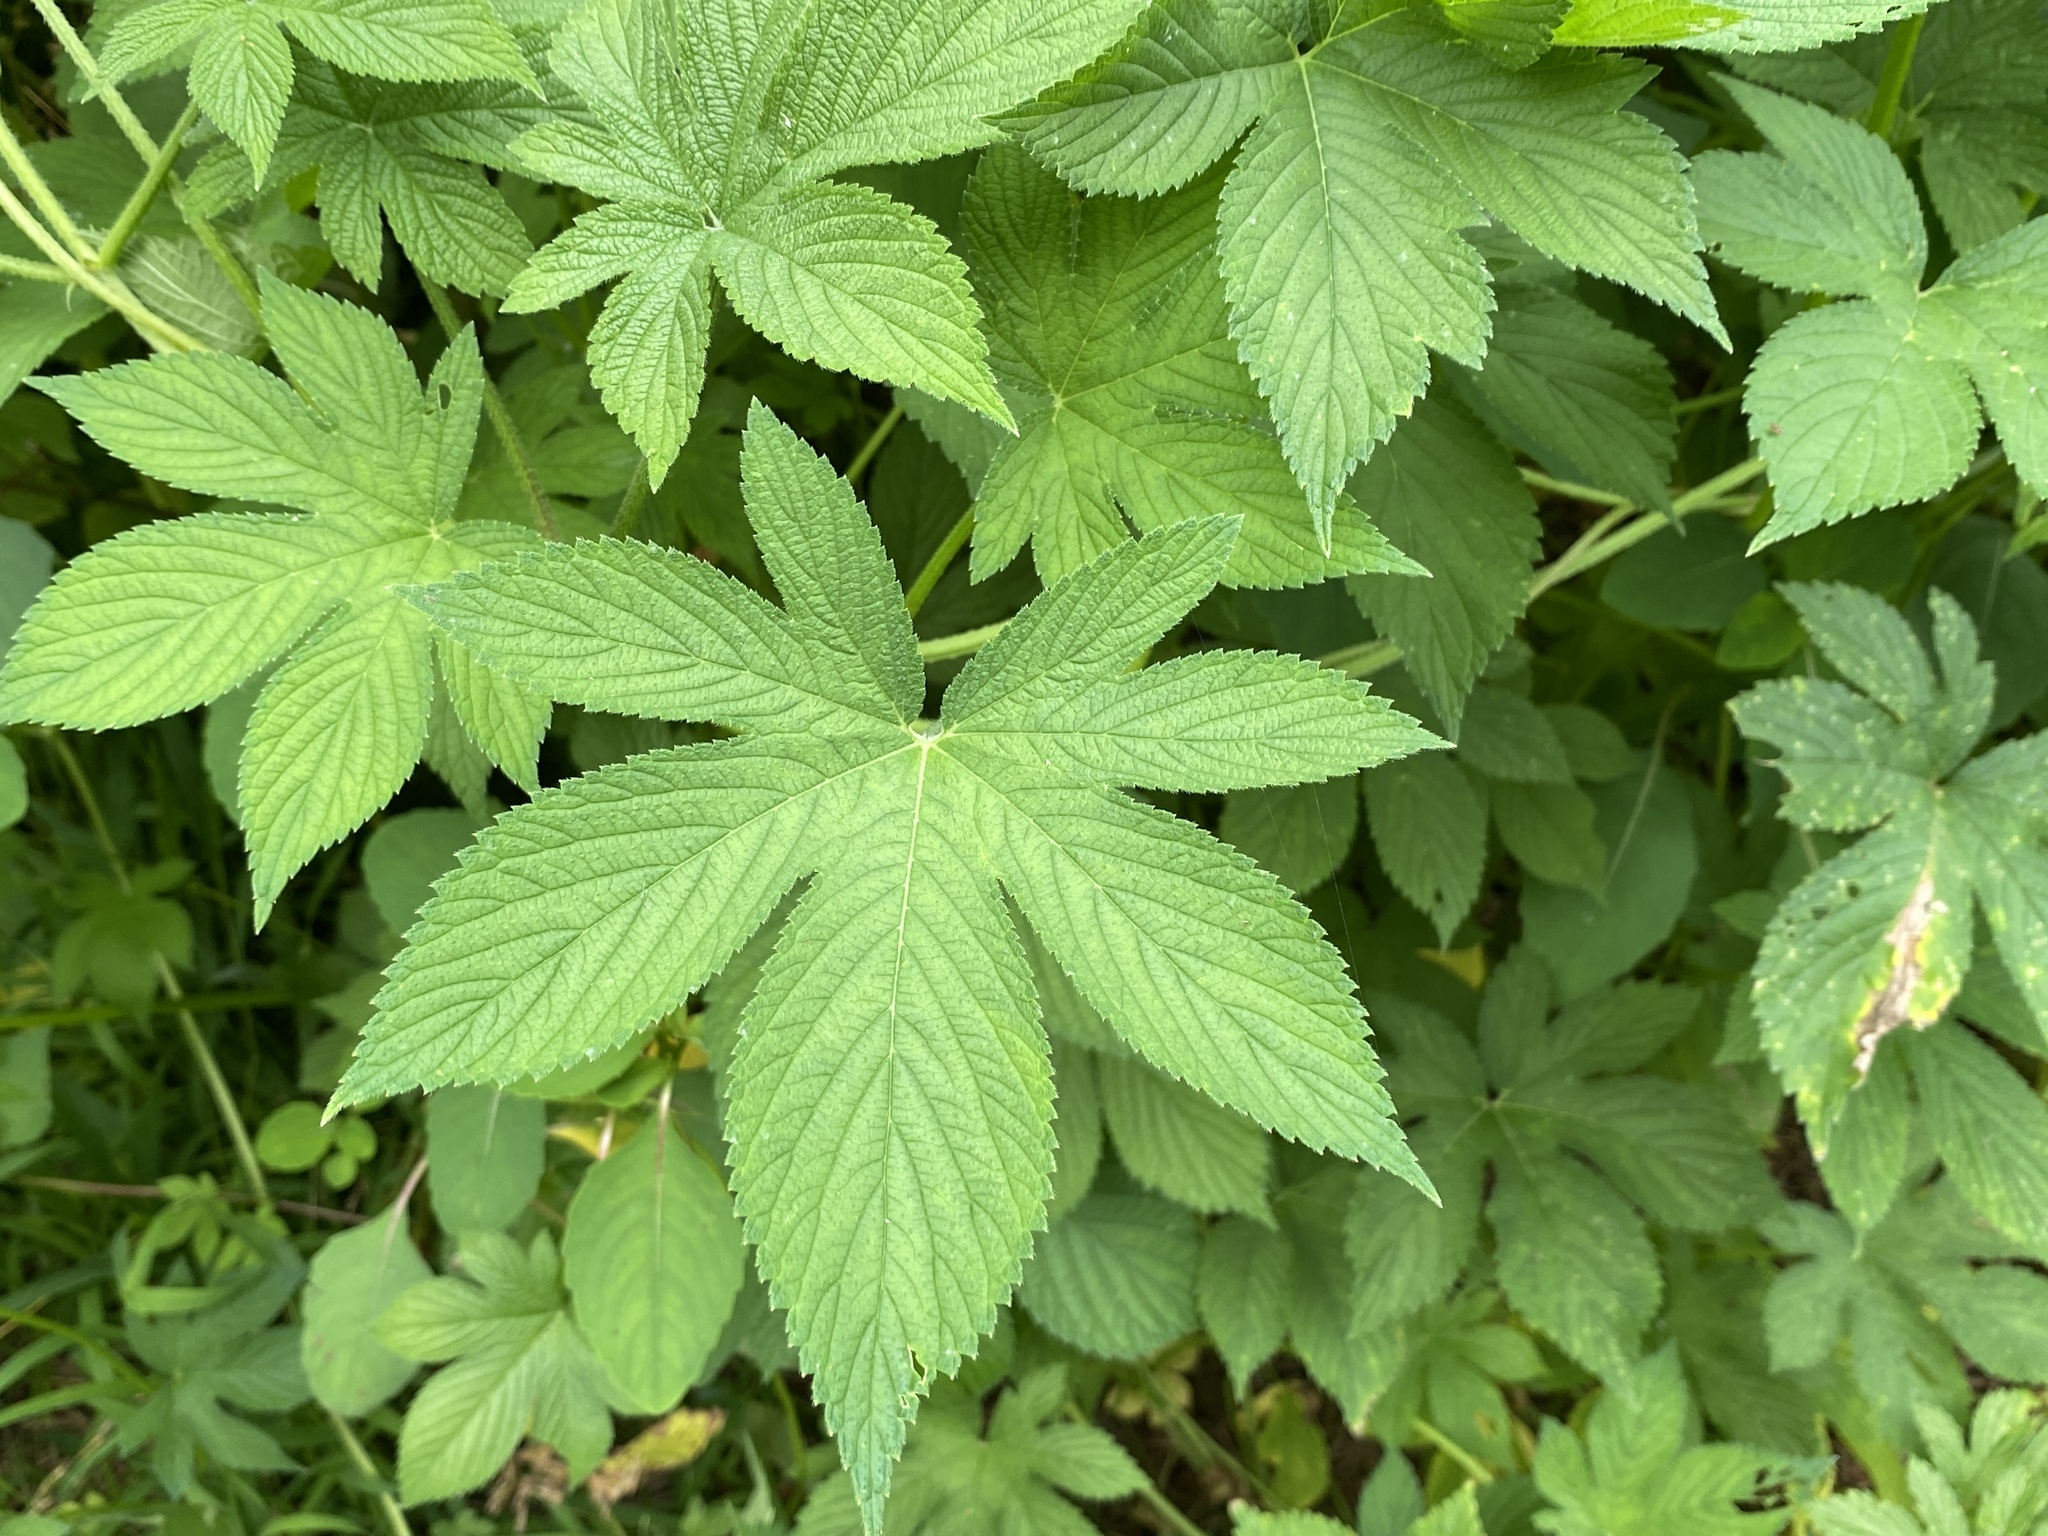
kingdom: Plantae
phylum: Tracheophyta
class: Magnoliopsida
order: Rosales
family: Cannabaceae
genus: Humulus
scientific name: Humulus scandens
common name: Japanese hop
